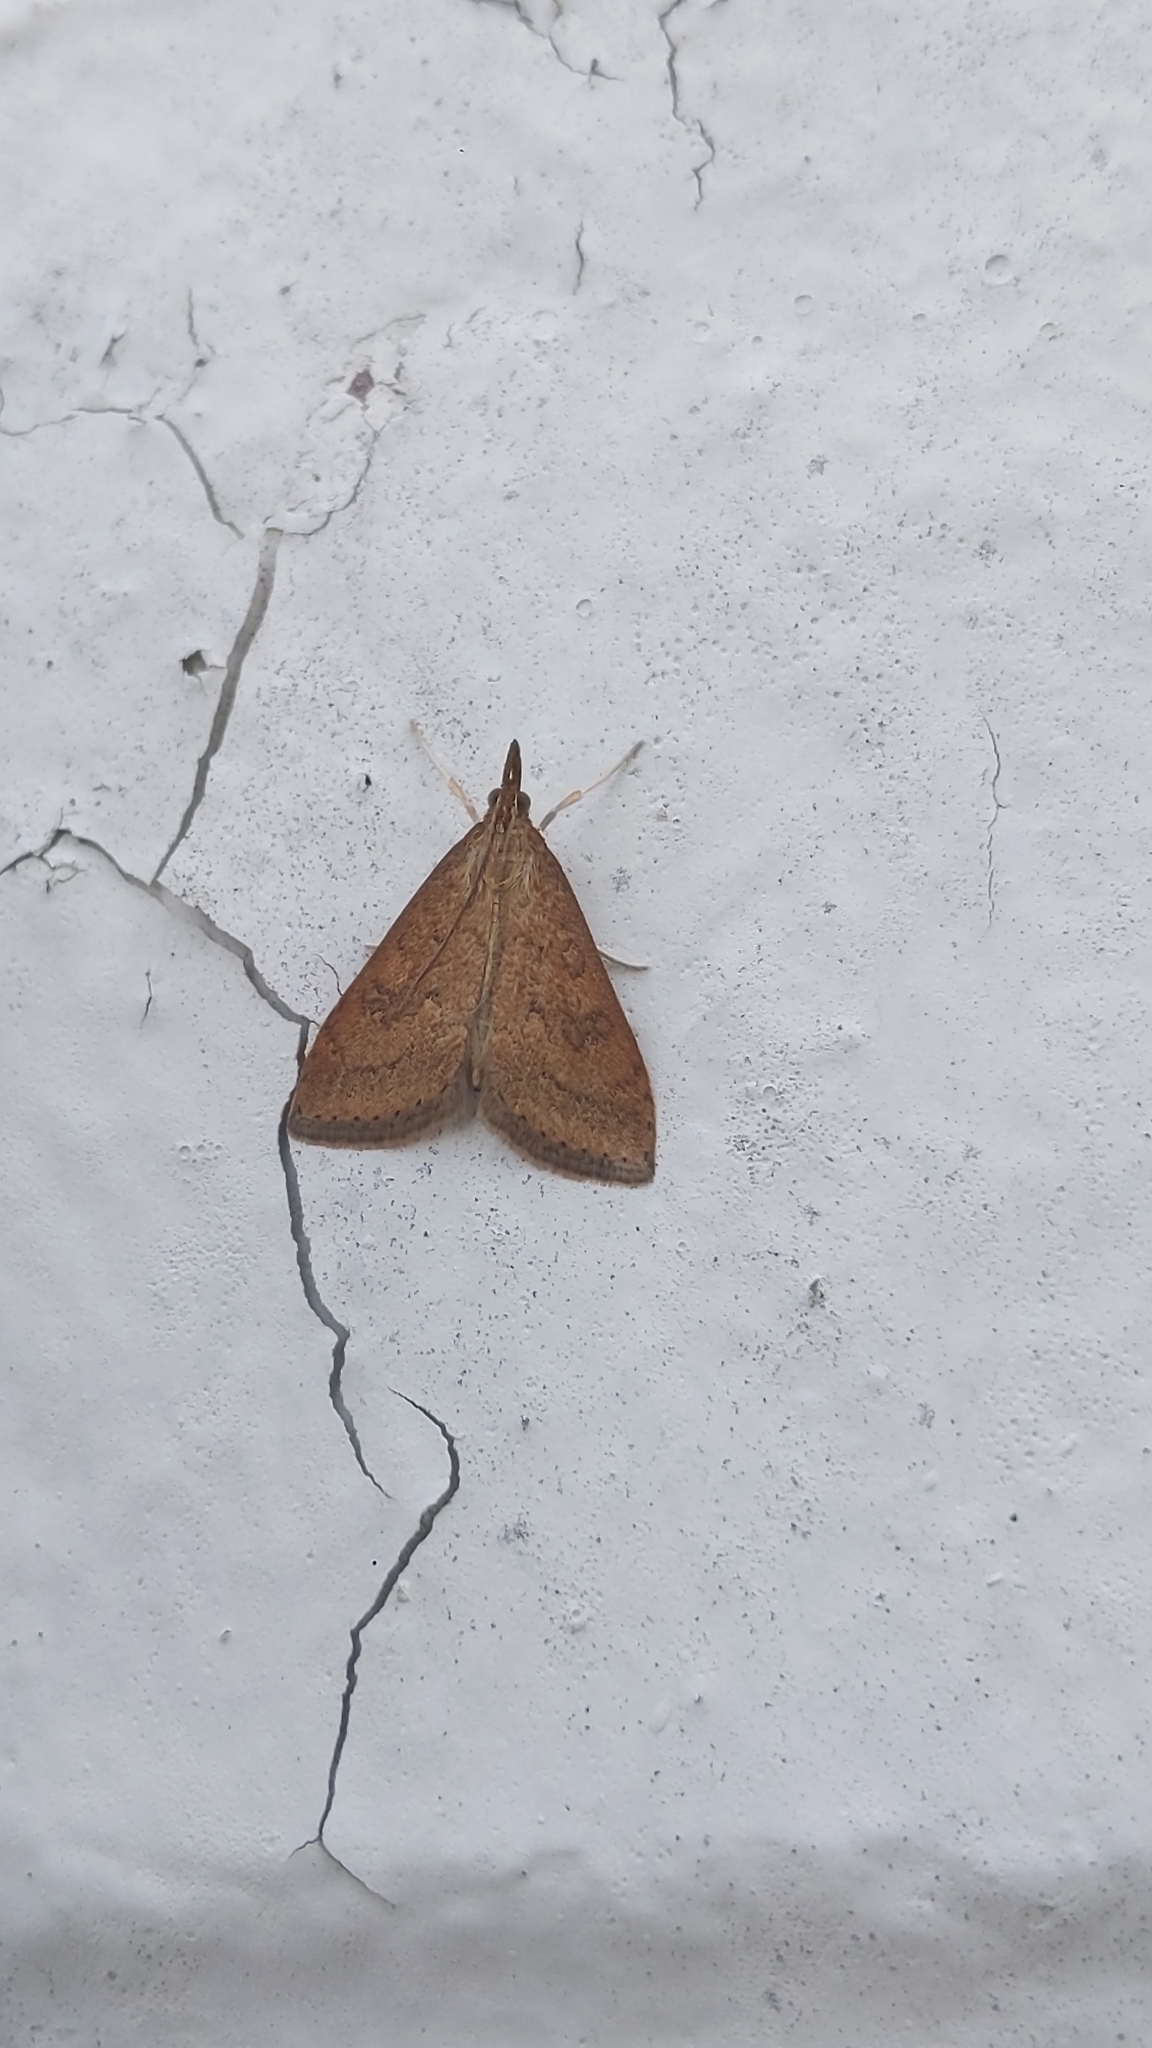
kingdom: Animalia
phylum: Arthropoda
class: Insecta
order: Lepidoptera
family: Crambidae
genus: Udea
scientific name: Udea rubigalis
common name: Celery leaftier moth
